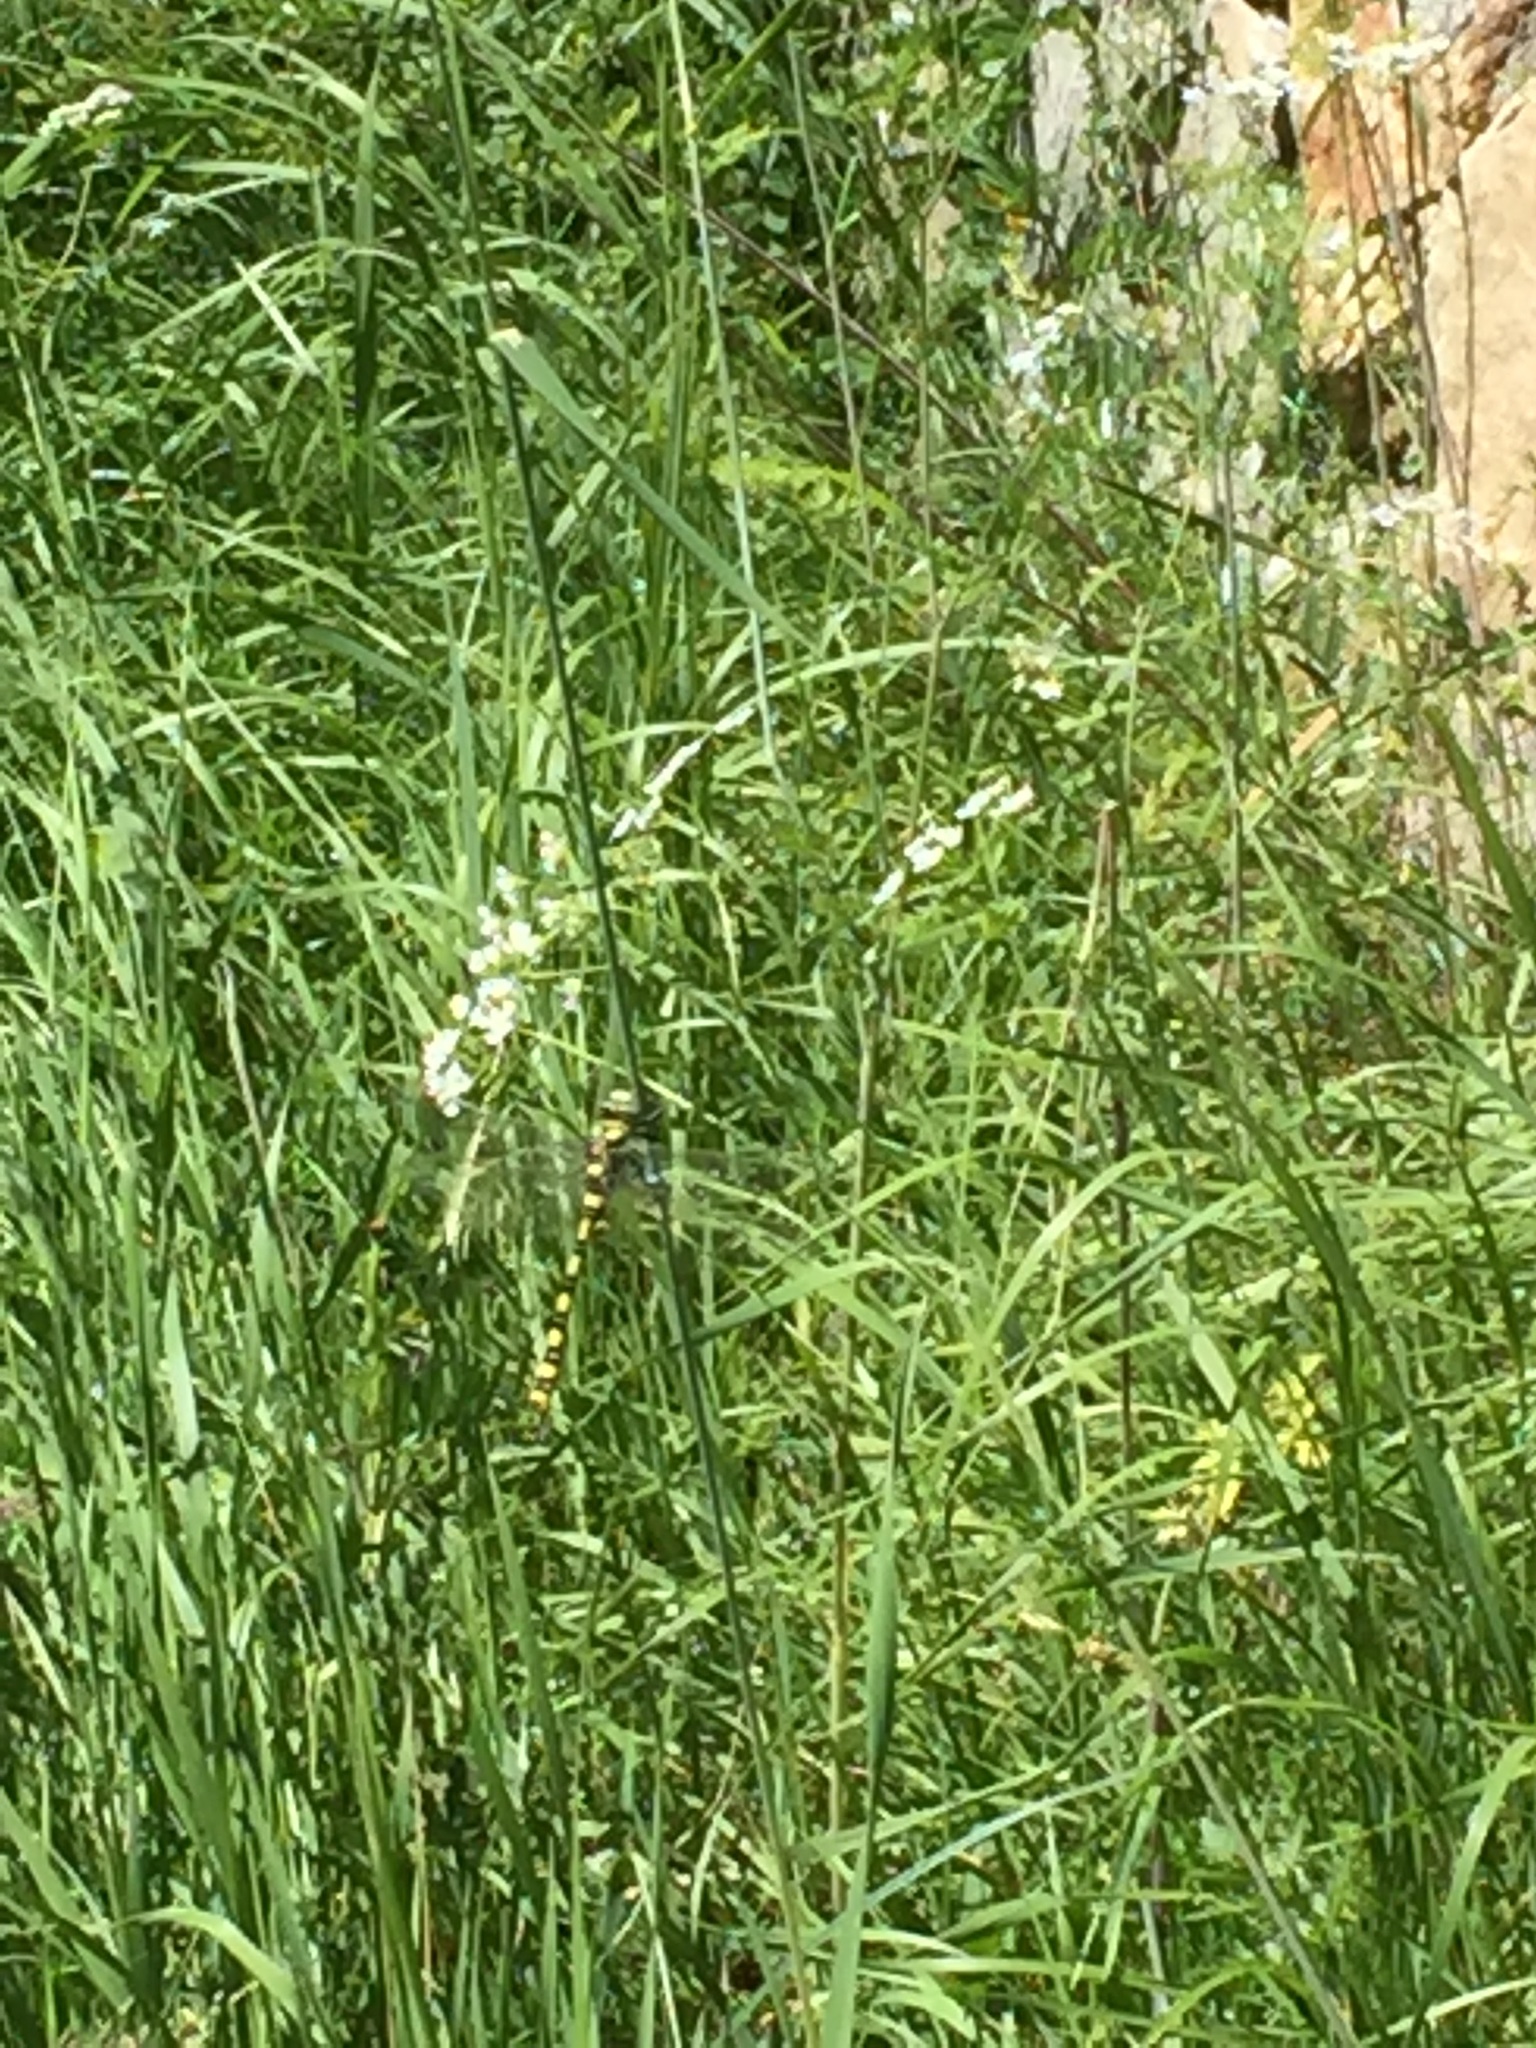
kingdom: Animalia
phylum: Arthropoda
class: Insecta
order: Odonata
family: Cordulegastridae
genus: Cordulegaster
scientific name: Cordulegaster charpentieri
